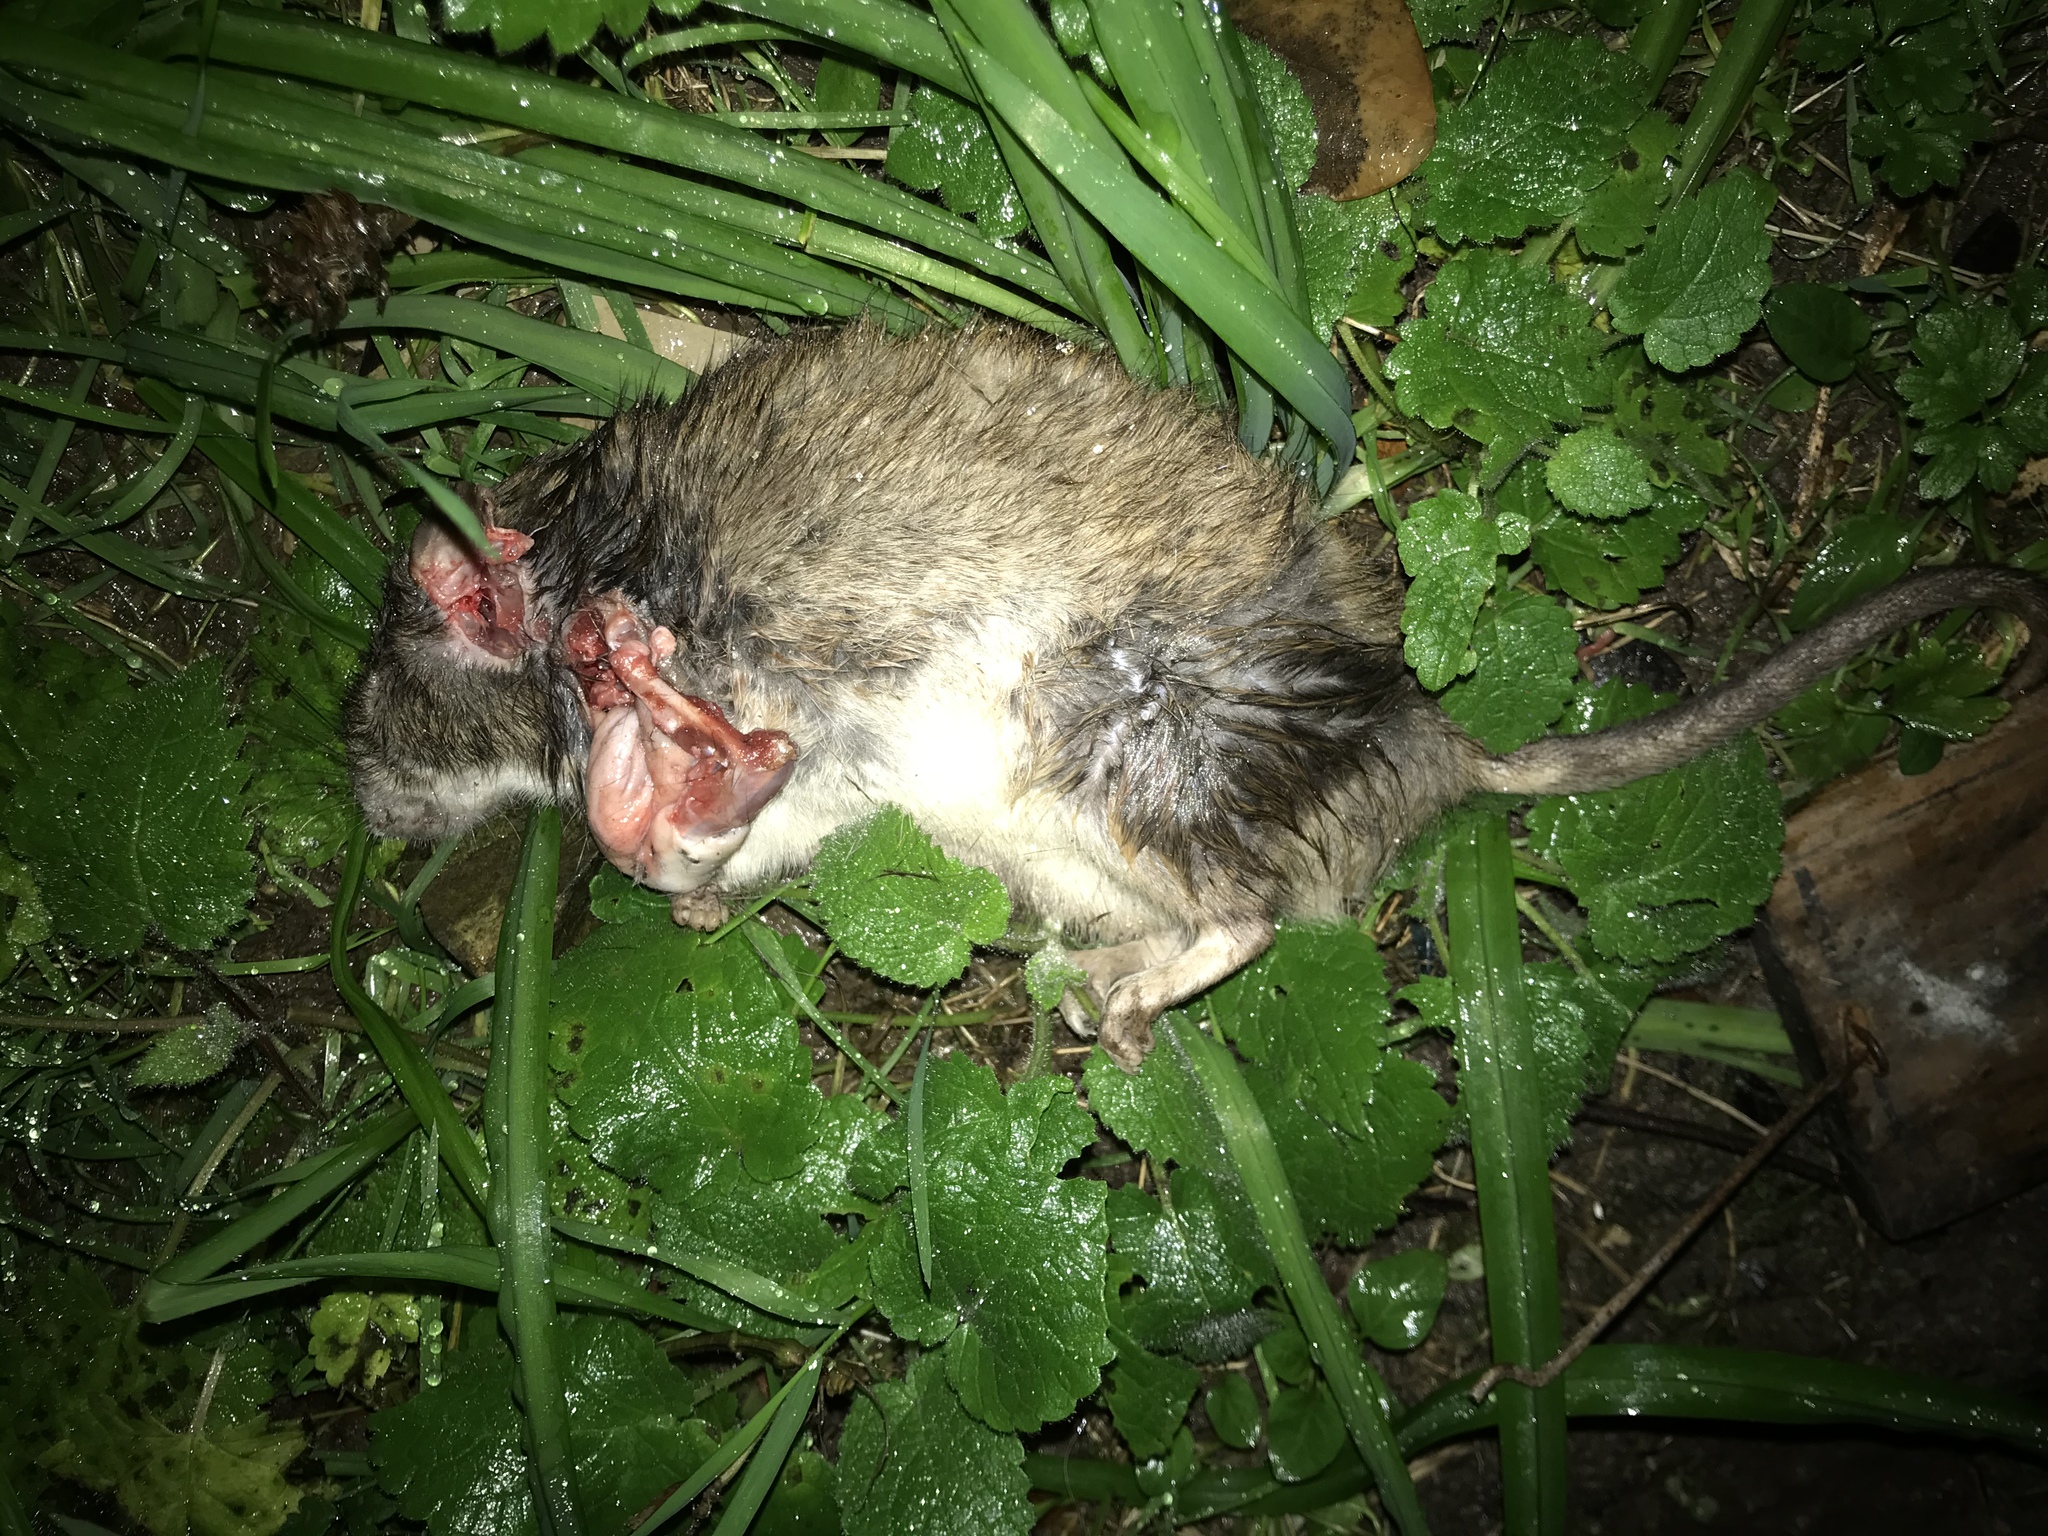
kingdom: Animalia
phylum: Chordata
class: Mammalia
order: Rodentia
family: Muridae
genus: Rattus
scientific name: Rattus norvegicus
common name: Brown rat
